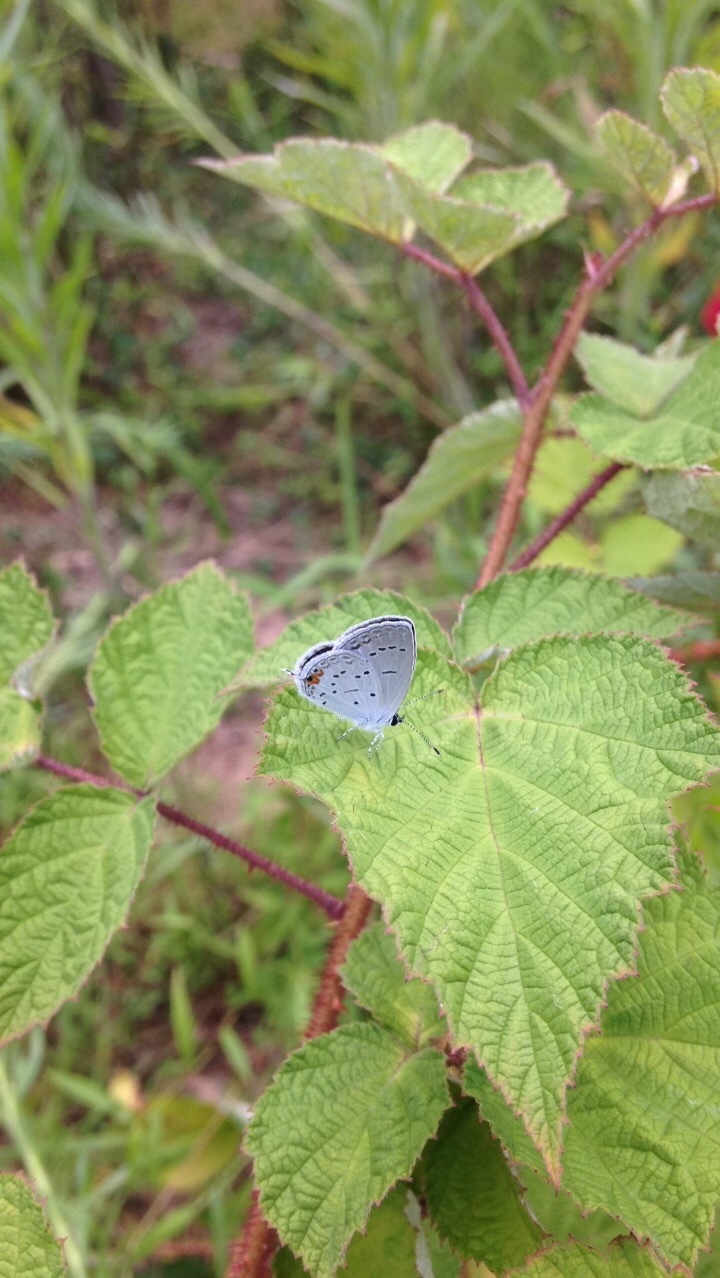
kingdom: Animalia
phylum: Arthropoda
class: Insecta
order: Lepidoptera
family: Lycaenidae
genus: Elkalyce
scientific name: Elkalyce comyntas
